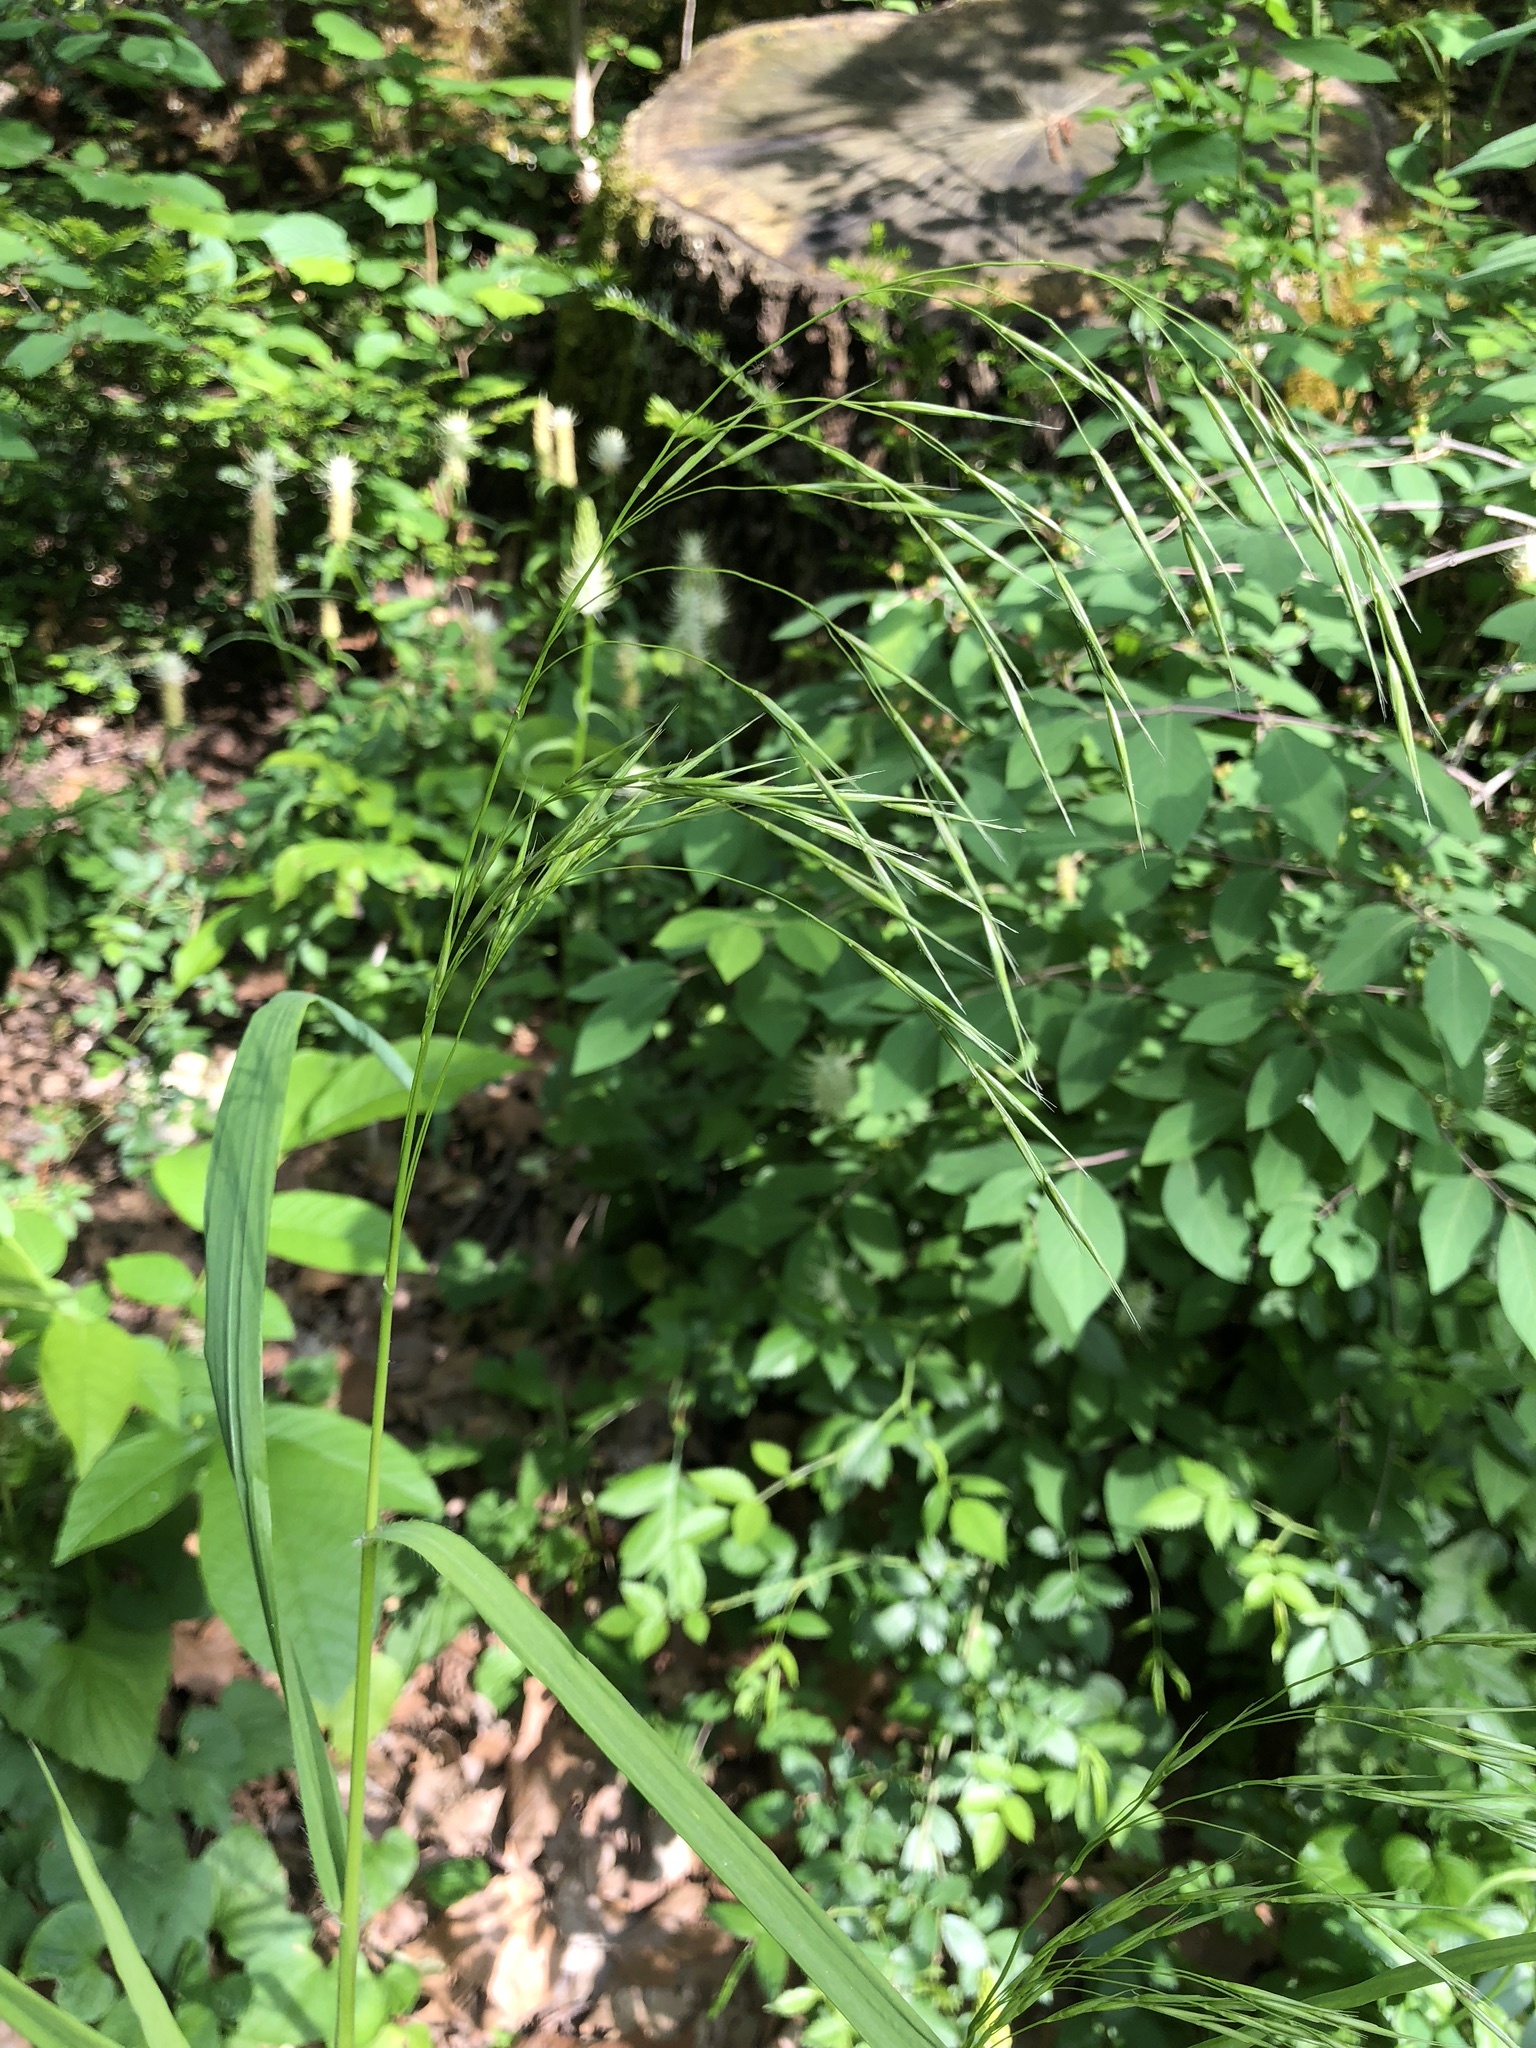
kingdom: Plantae
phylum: Tracheophyta
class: Liliopsida
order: Poales
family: Poaceae
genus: Bromus
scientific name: Bromus benekenii
